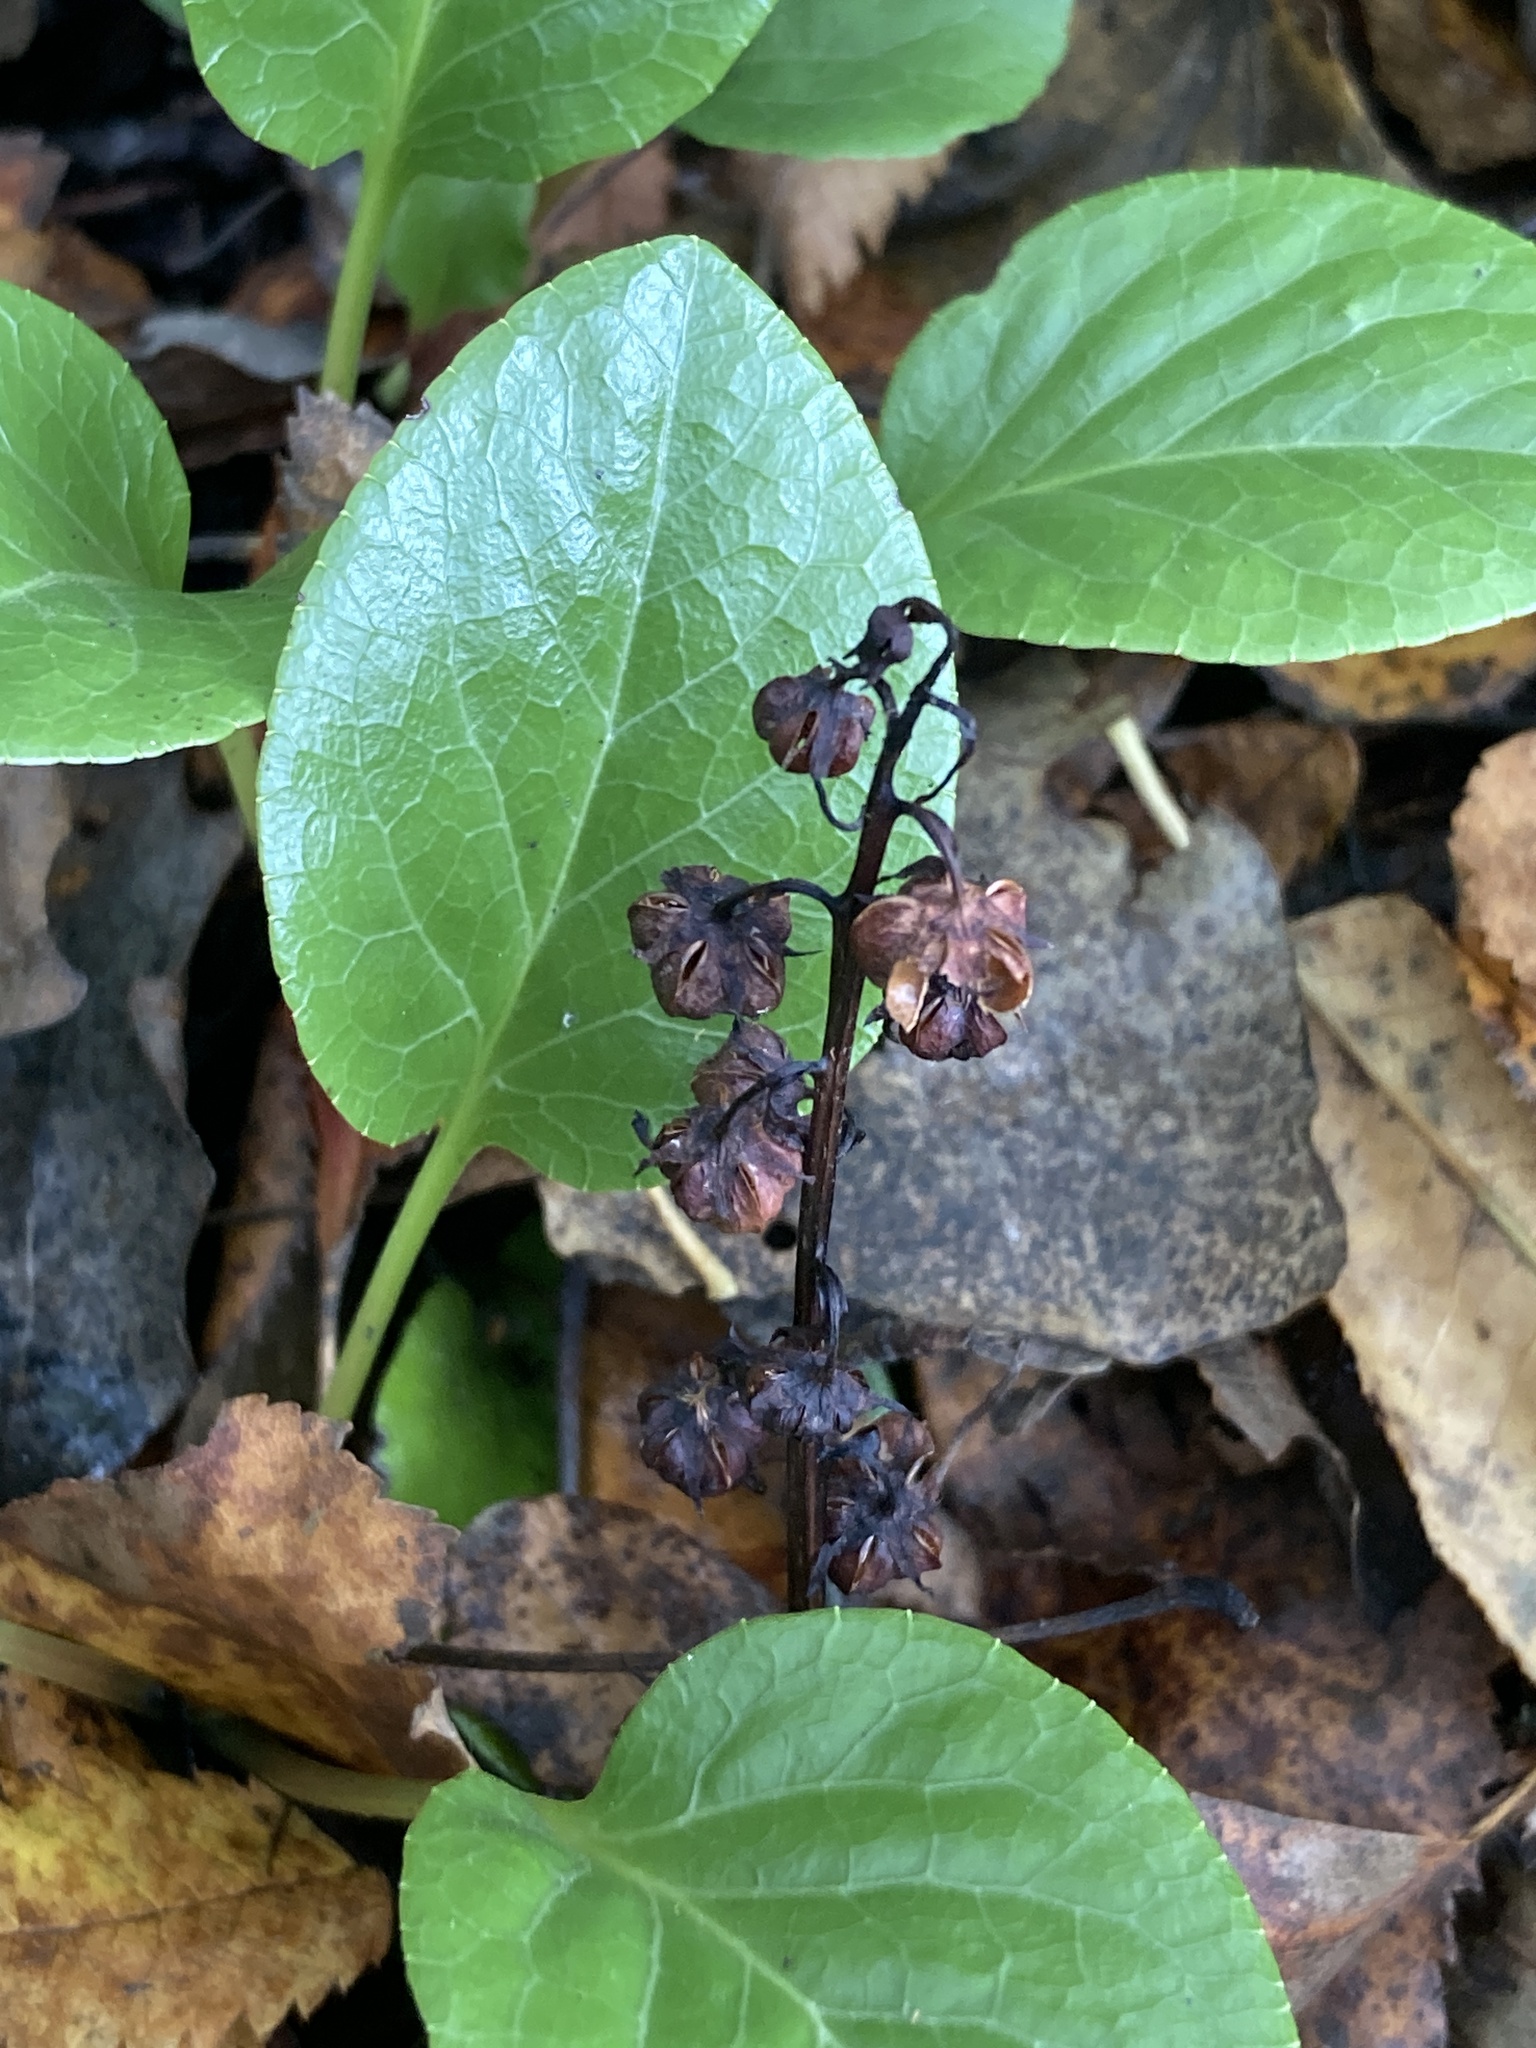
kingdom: Plantae
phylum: Tracheophyta
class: Magnoliopsida
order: Ericales
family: Ericaceae
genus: Pyrola
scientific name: Pyrola rotundifolia
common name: Round-leaved wintergreen
